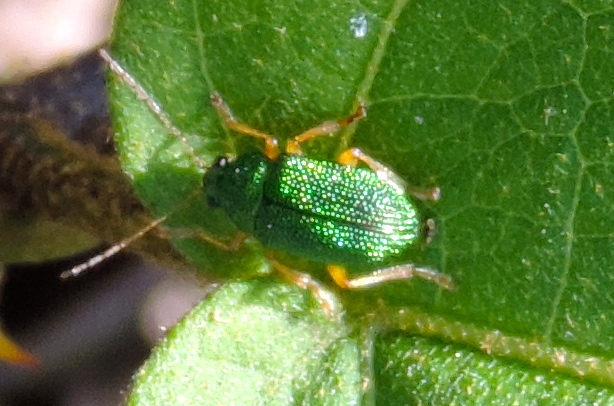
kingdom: Animalia
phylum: Arthropoda
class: Insecta
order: Coleoptera
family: Chrysomelidae
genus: Colaspis
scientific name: Colaspis
